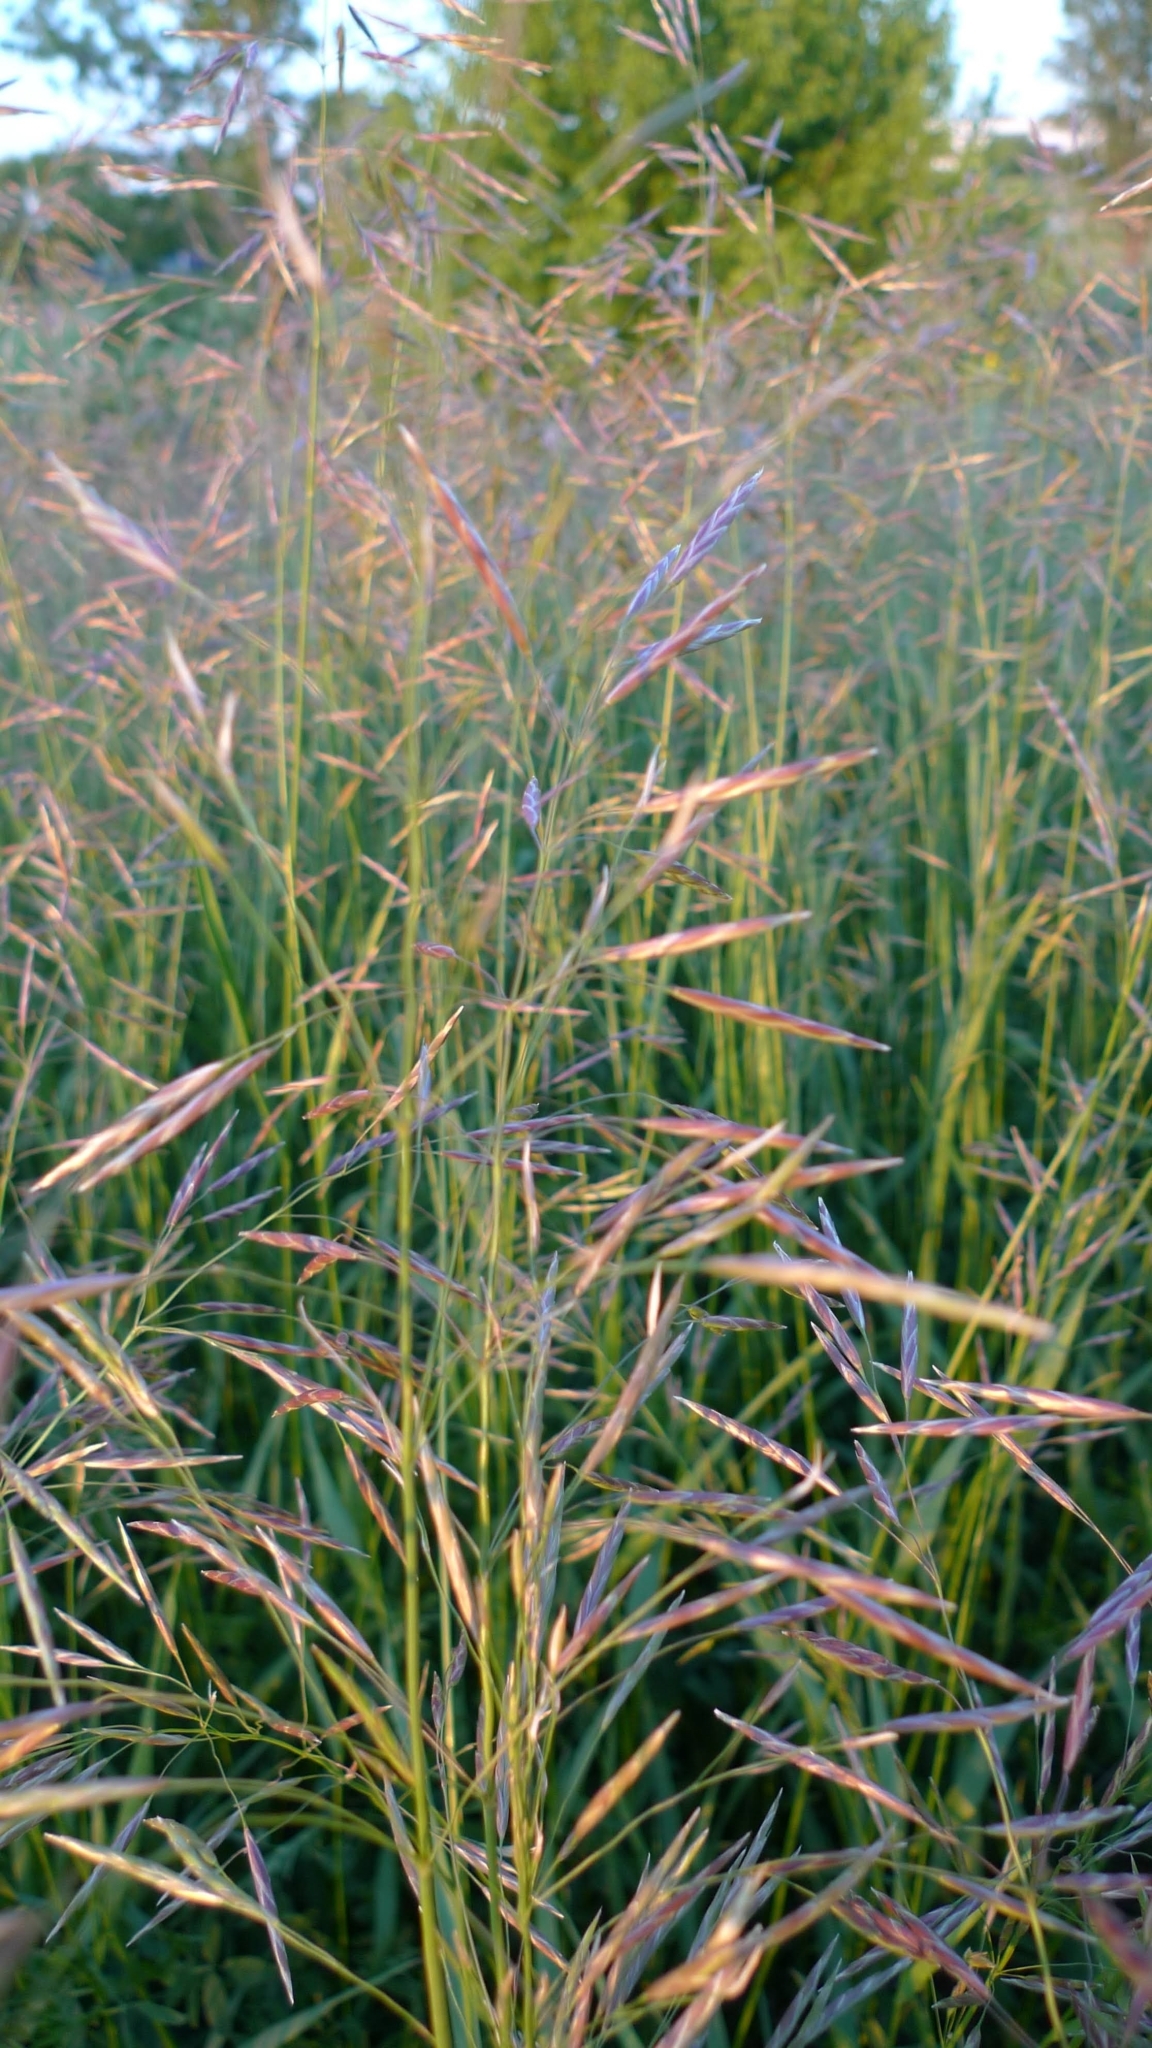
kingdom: Plantae
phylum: Tracheophyta
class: Liliopsida
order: Poales
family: Poaceae
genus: Bromus
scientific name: Bromus inermis
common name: Smooth brome
